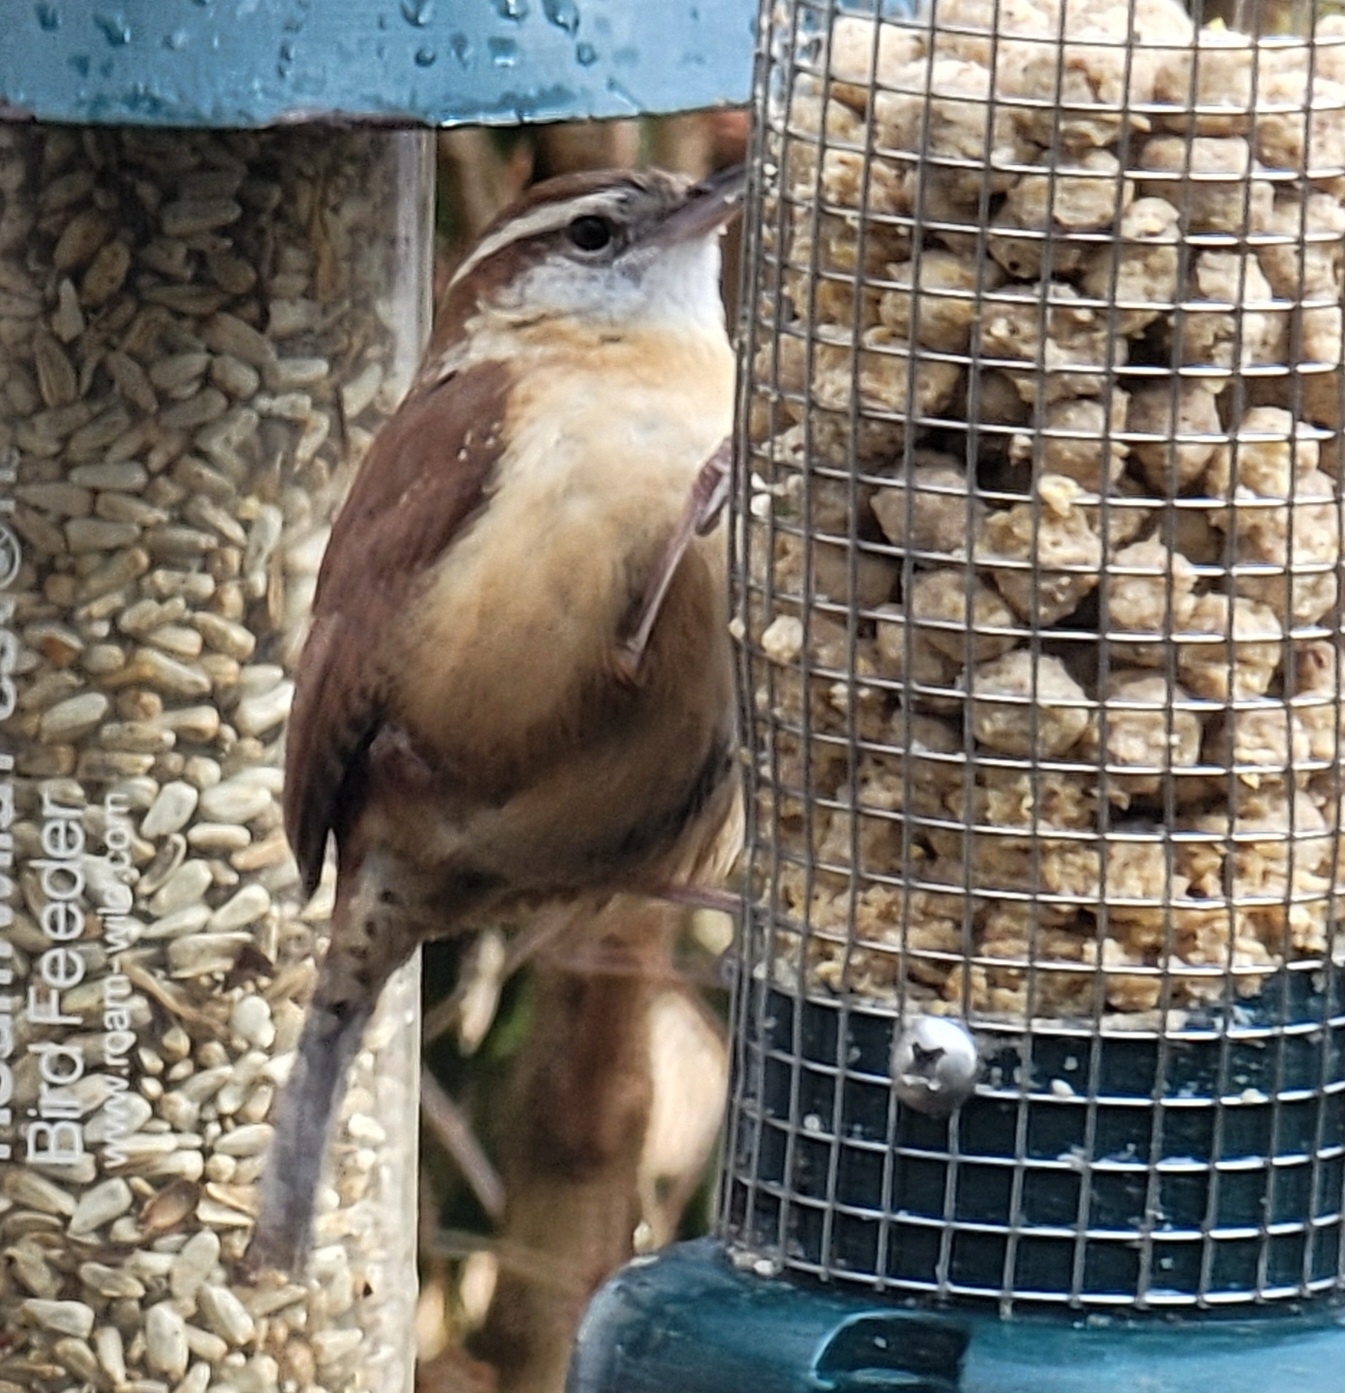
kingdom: Animalia
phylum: Chordata
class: Aves
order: Passeriformes
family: Troglodytidae
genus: Thryothorus
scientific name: Thryothorus ludovicianus
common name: Carolina wren
